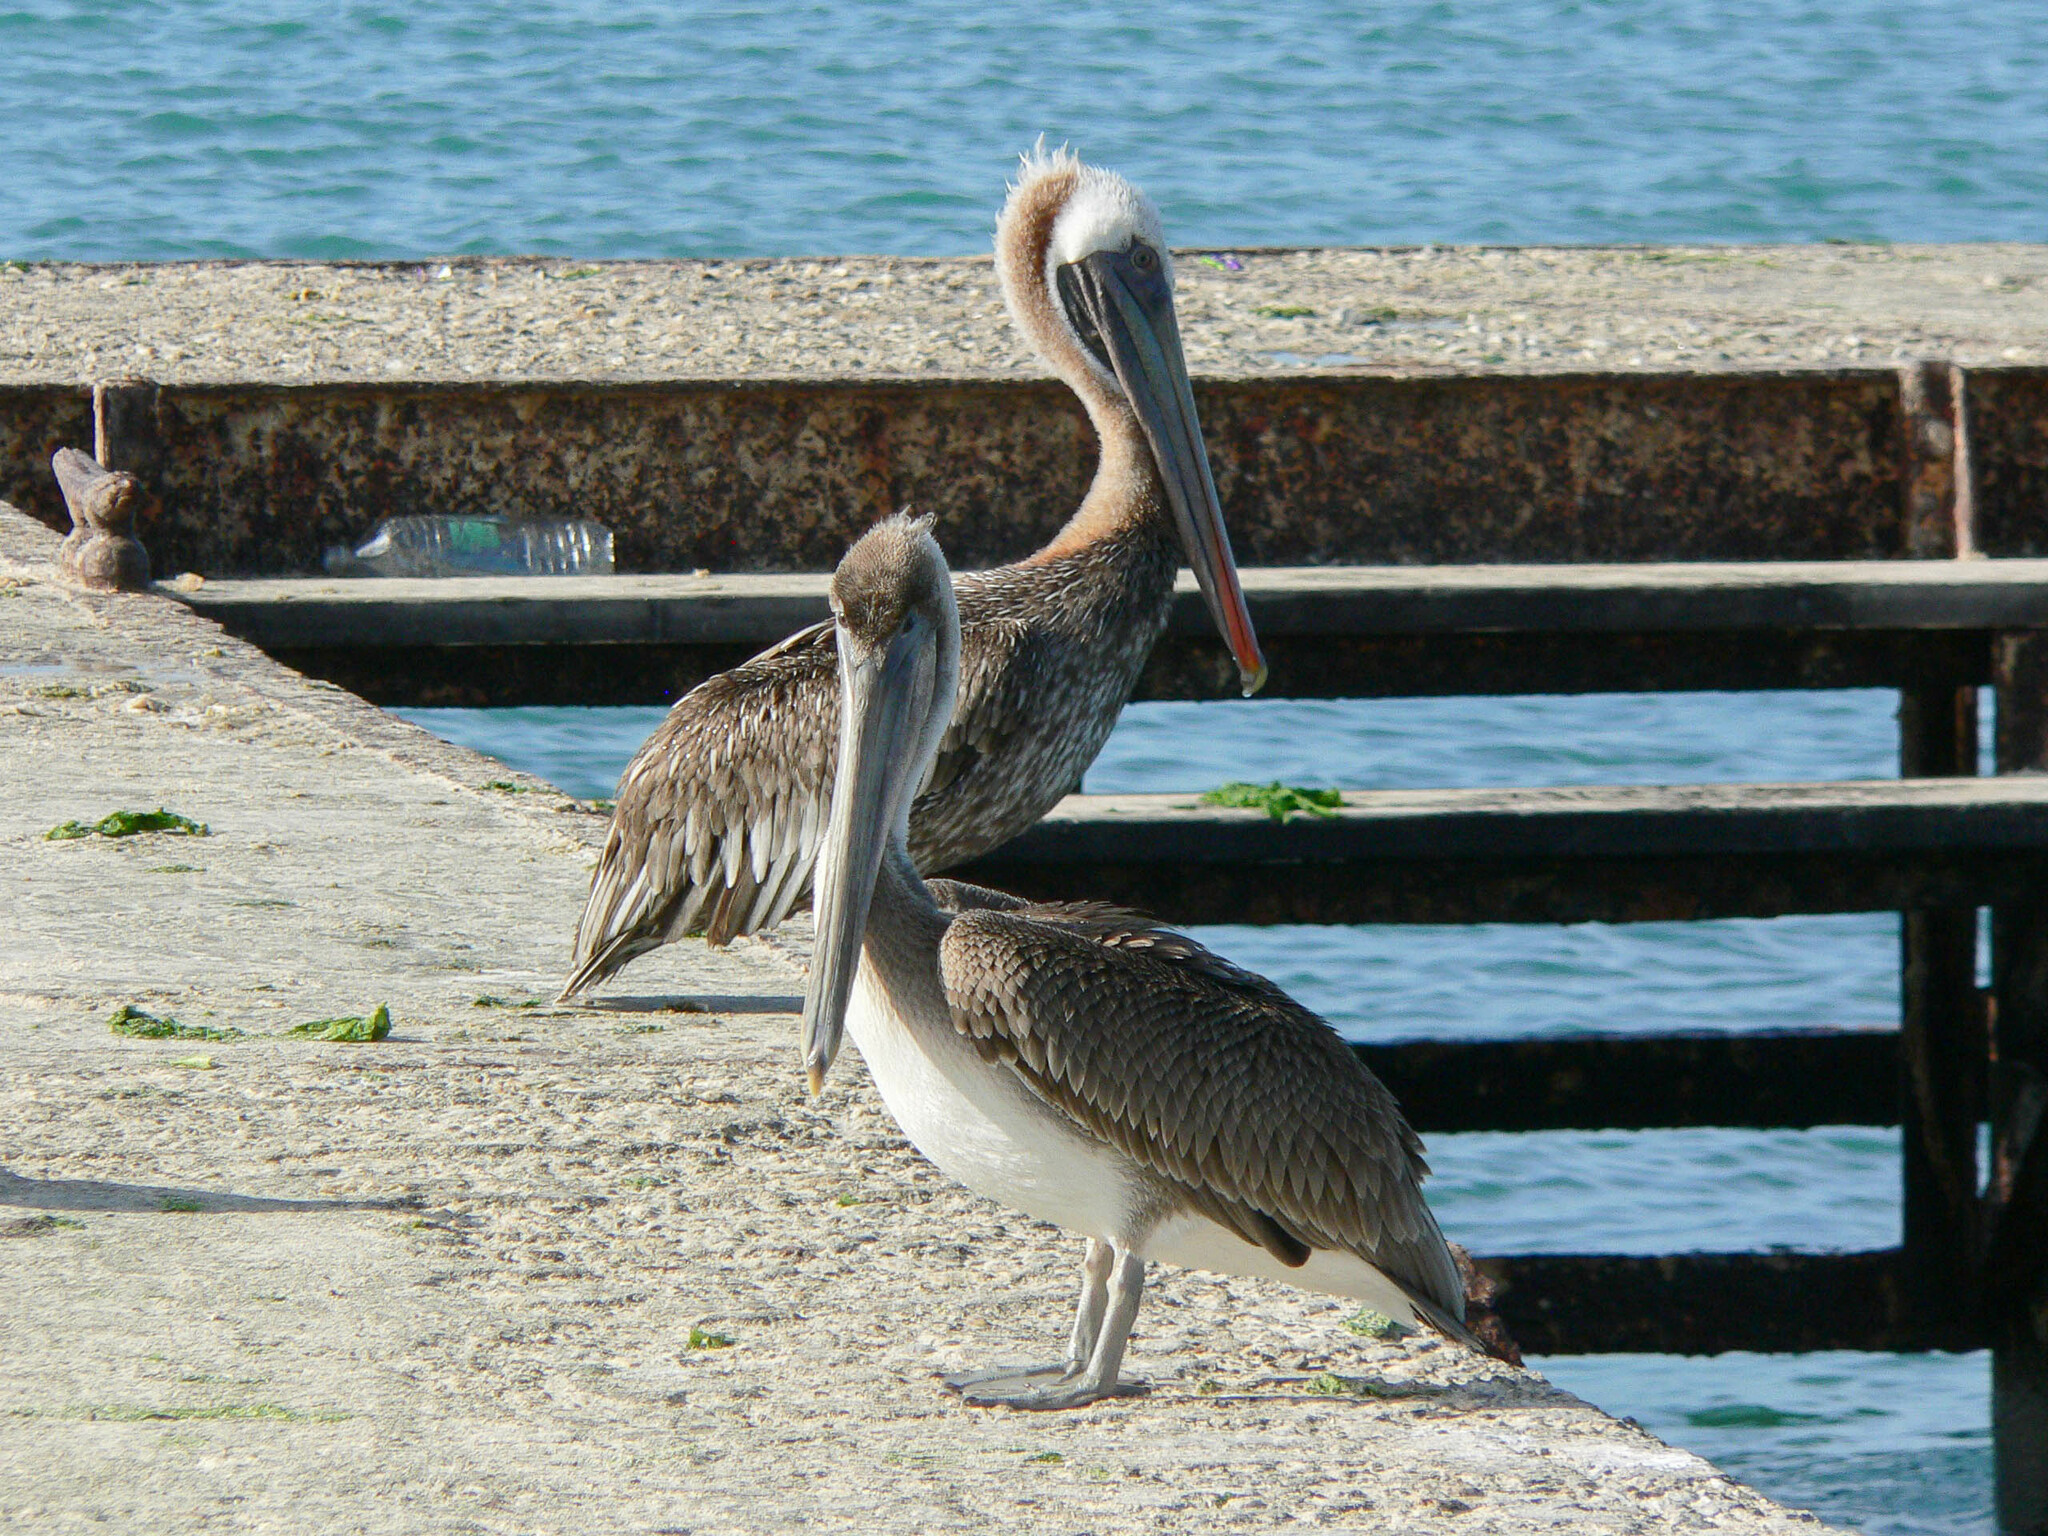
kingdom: Animalia
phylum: Chordata
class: Aves
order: Pelecaniformes
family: Pelecanidae
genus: Pelecanus
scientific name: Pelecanus occidentalis
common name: Brown pelican
